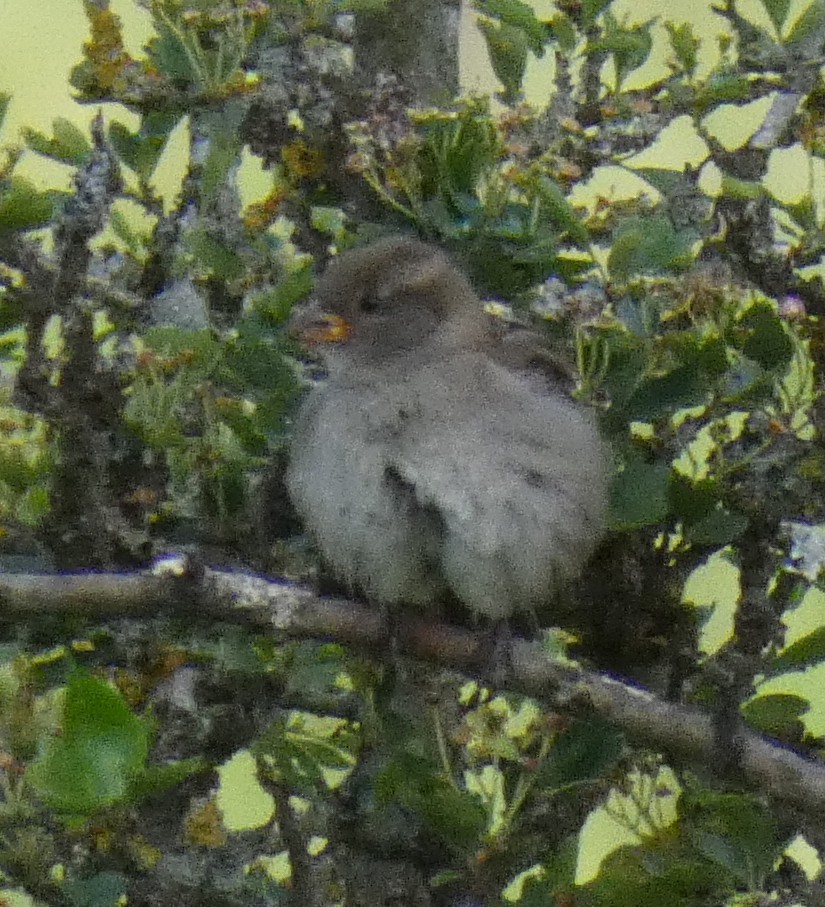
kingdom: Animalia
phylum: Chordata
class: Aves
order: Passeriformes
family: Passeridae
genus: Passer
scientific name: Passer domesticus
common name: House sparrow
